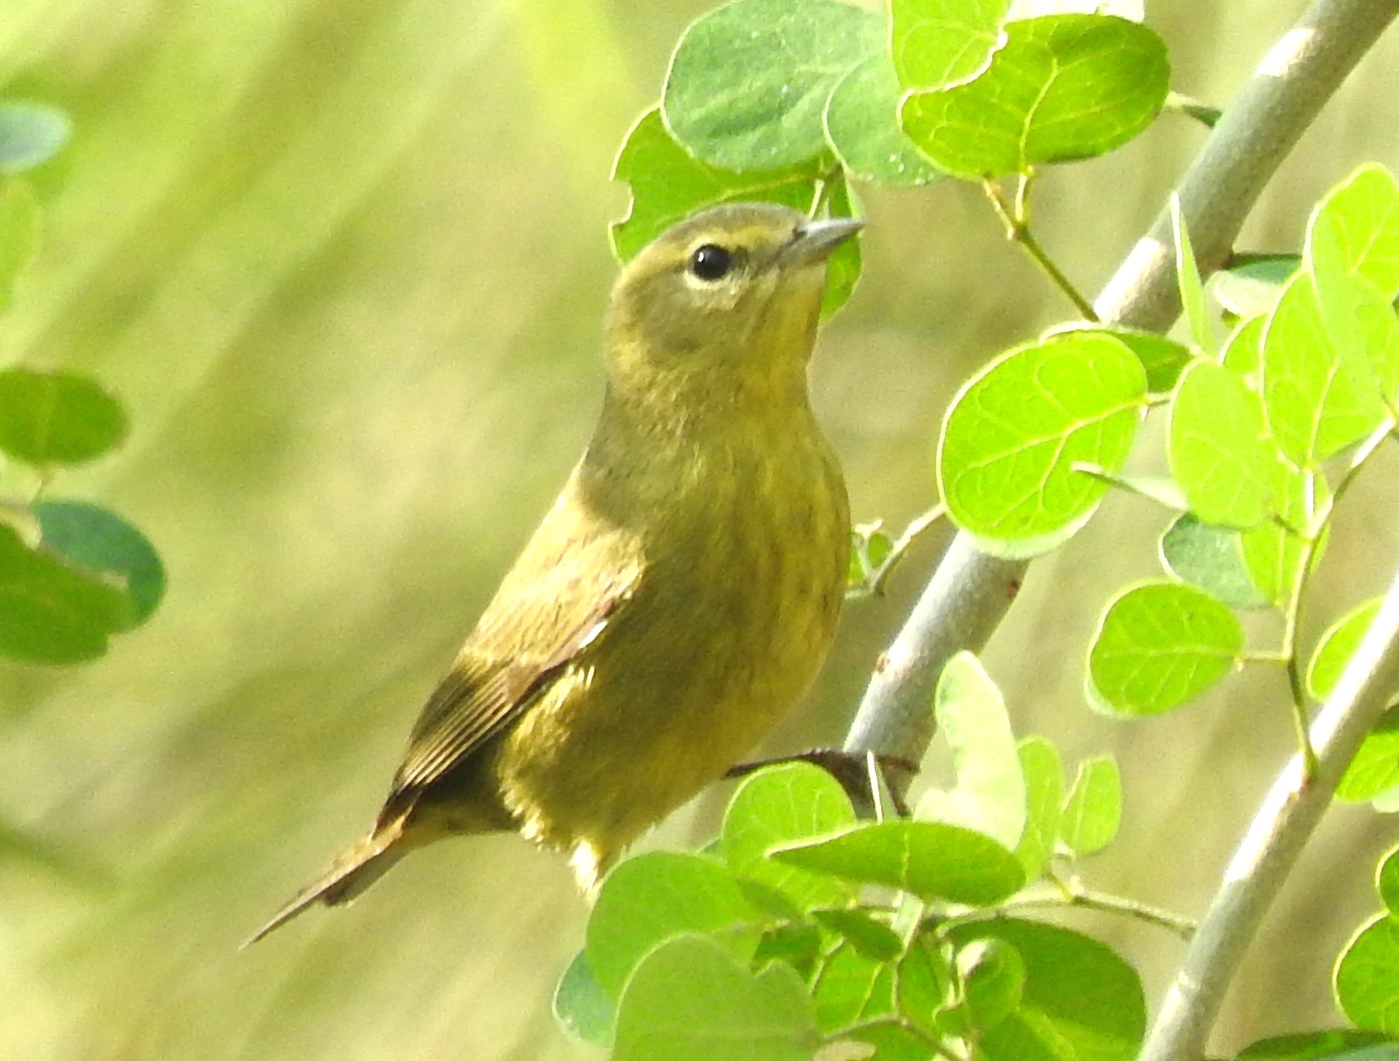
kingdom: Animalia
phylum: Chordata
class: Aves
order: Passeriformes
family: Parulidae
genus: Leiothlypis
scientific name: Leiothlypis celata
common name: Orange-crowned warbler
